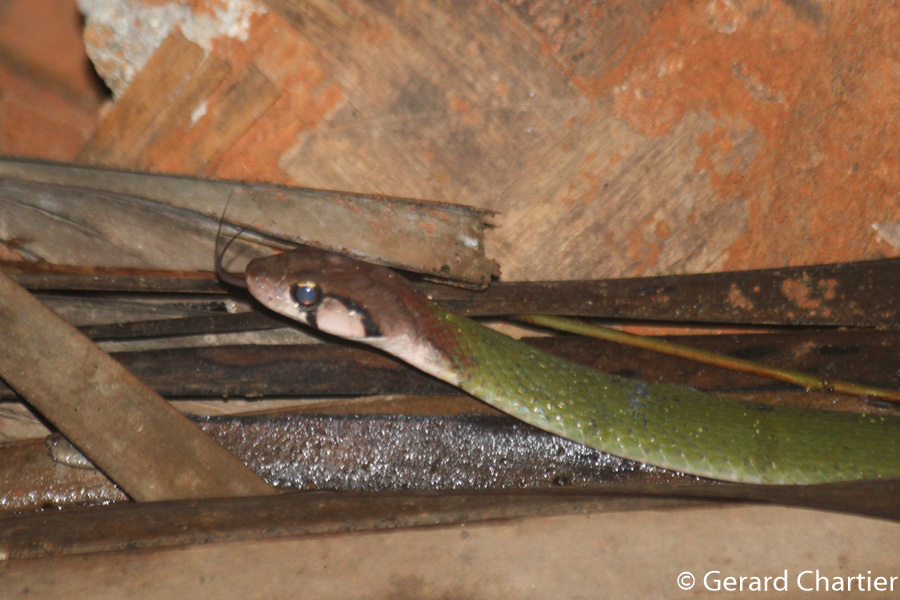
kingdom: Animalia
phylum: Chordata
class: Squamata
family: Colubridae
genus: Rhabdophis
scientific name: Rhabdophis nigrocinctus
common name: Green keelback
